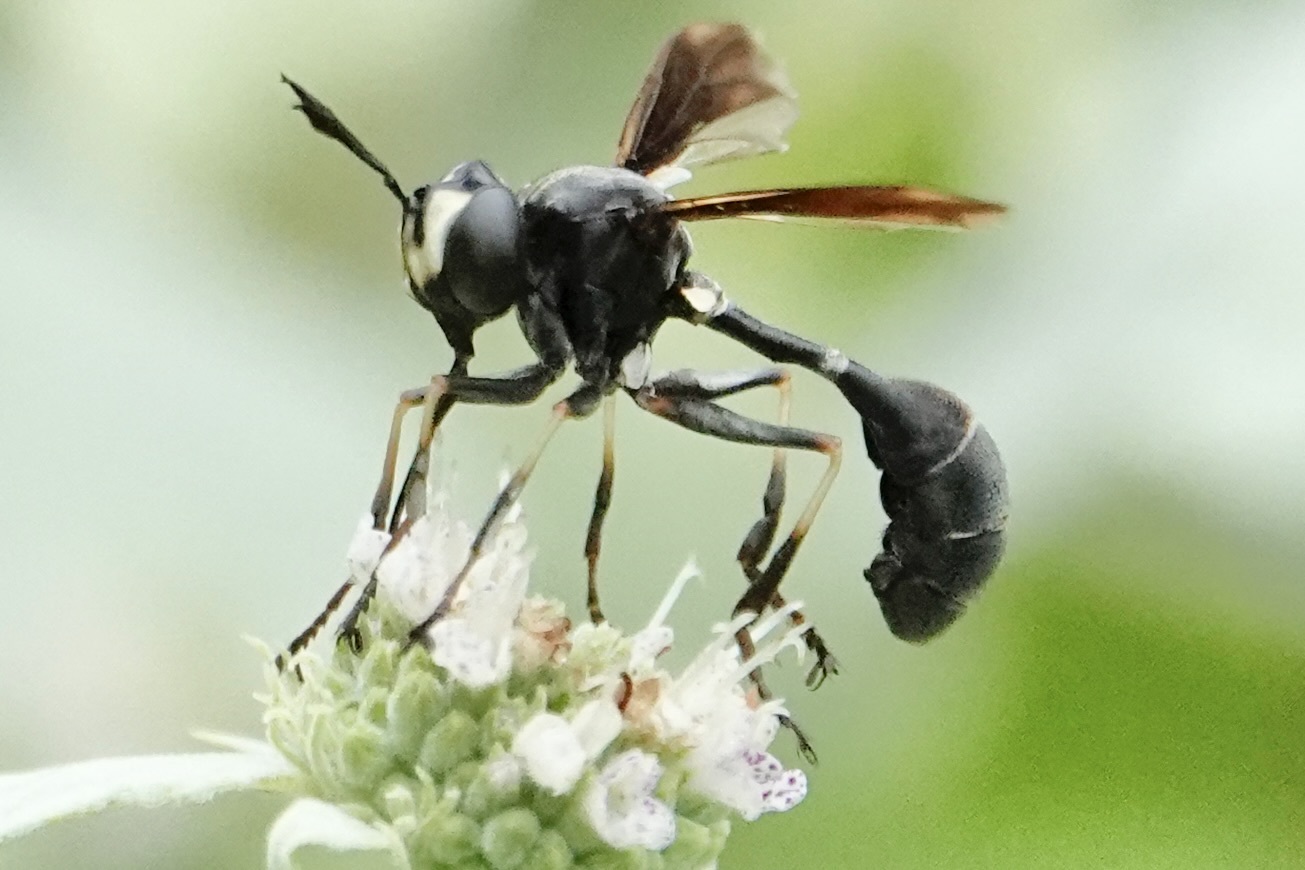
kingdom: Animalia
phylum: Arthropoda
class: Insecta
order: Diptera
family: Conopidae
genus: Physocephala
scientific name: Physocephala tibialis
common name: Common eastern physocephala
